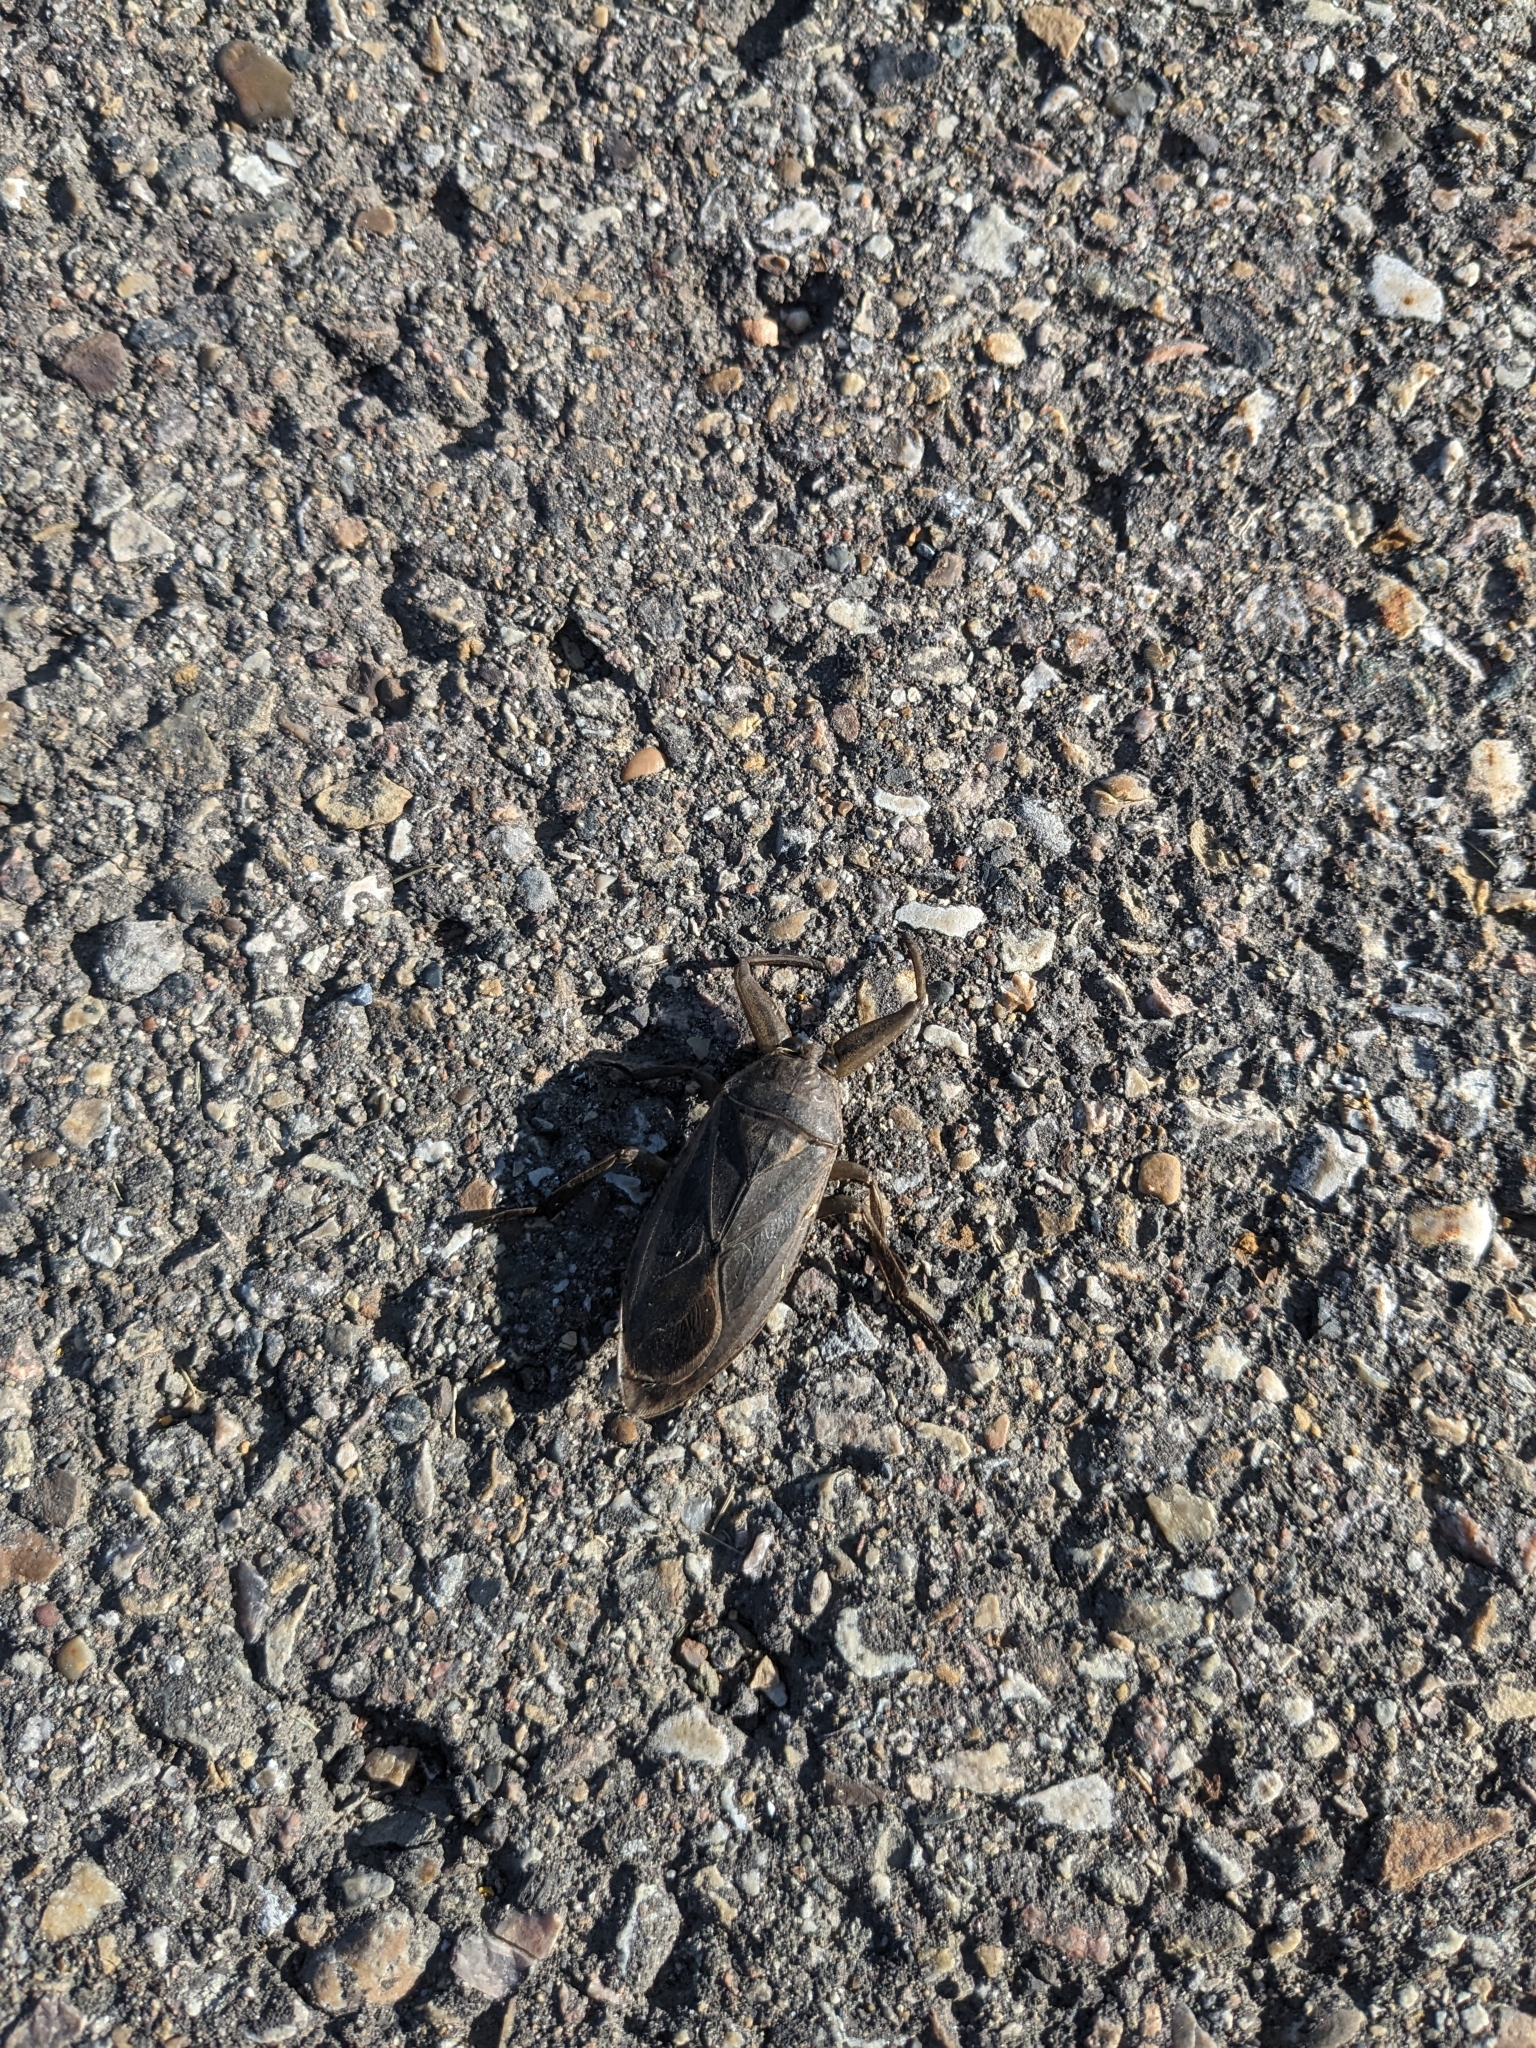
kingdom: Animalia
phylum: Arthropoda
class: Insecta
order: Hemiptera
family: Belostomatidae
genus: Lethocerus
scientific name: Lethocerus americanus
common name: Giant water bug
